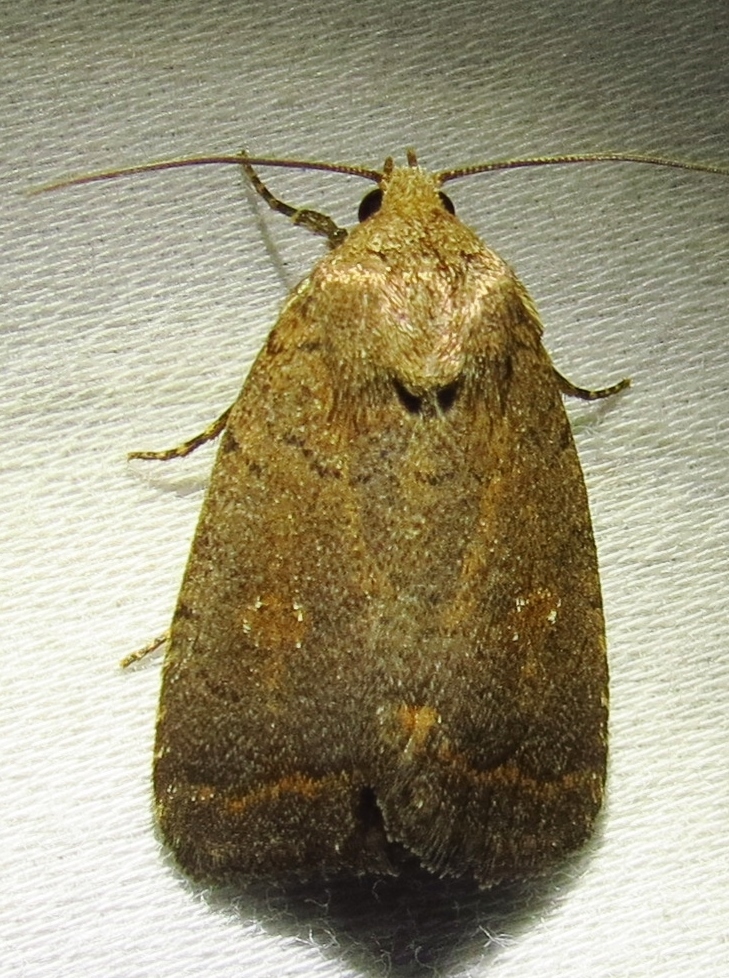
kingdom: Animalia
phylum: Arthropoda
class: Insecta
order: Lepidoptera
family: Noctuidae
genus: Athetis
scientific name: Athetis tarda
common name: Slowpoke moth
